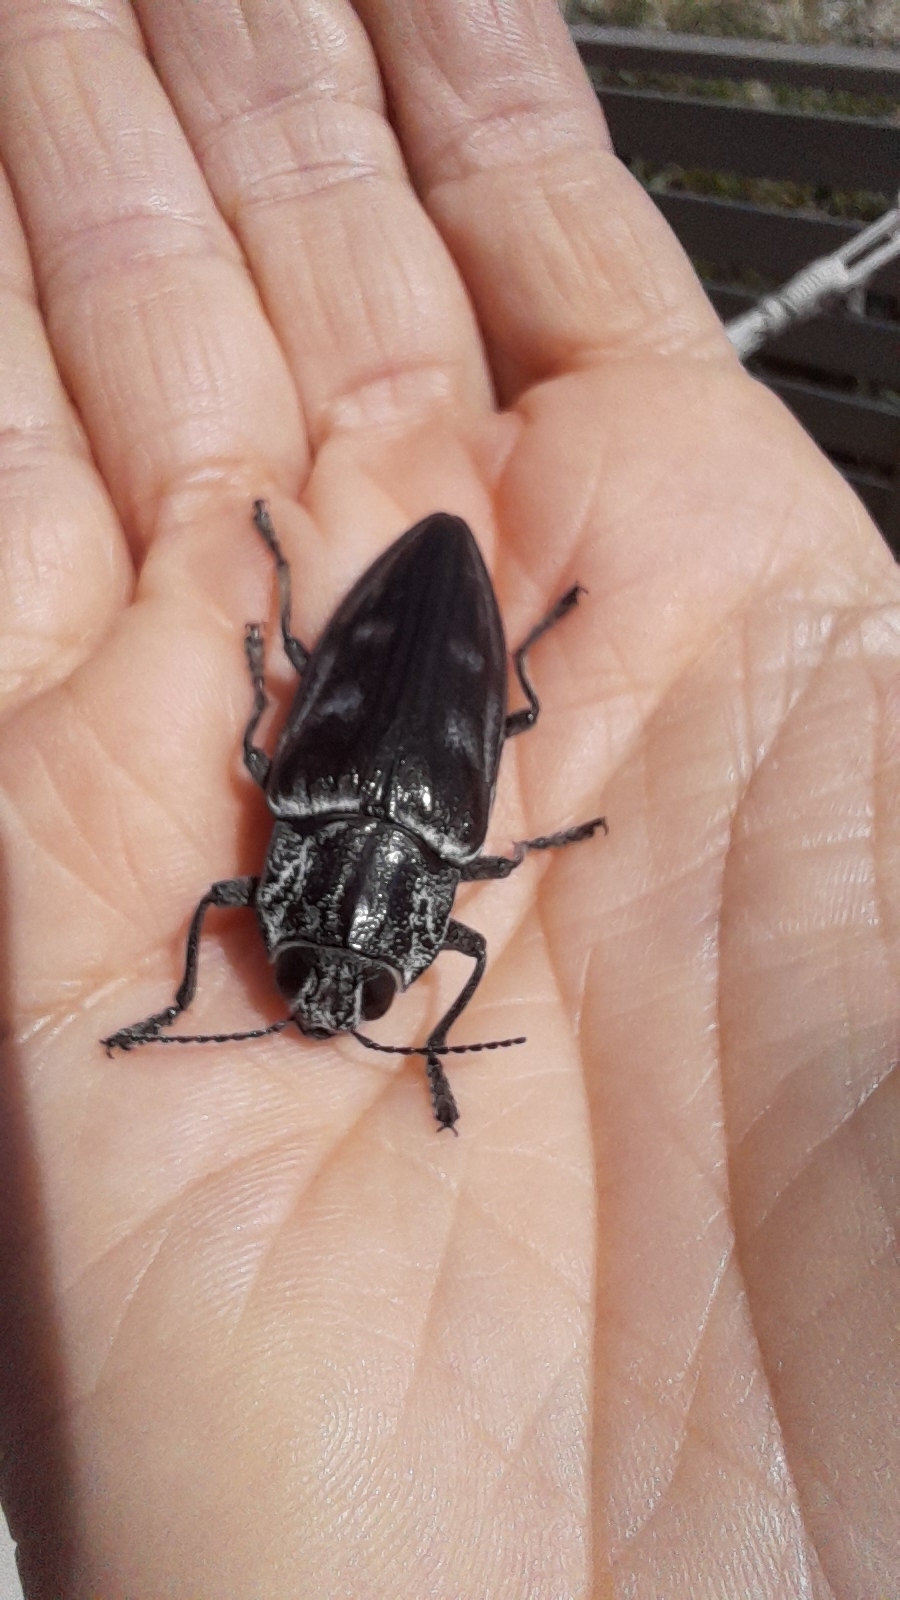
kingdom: Animalia
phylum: Arthropoda
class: Insecta
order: Coleoptera
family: Buprestidae
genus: Chalcophora
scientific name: Chalcophora detrita
